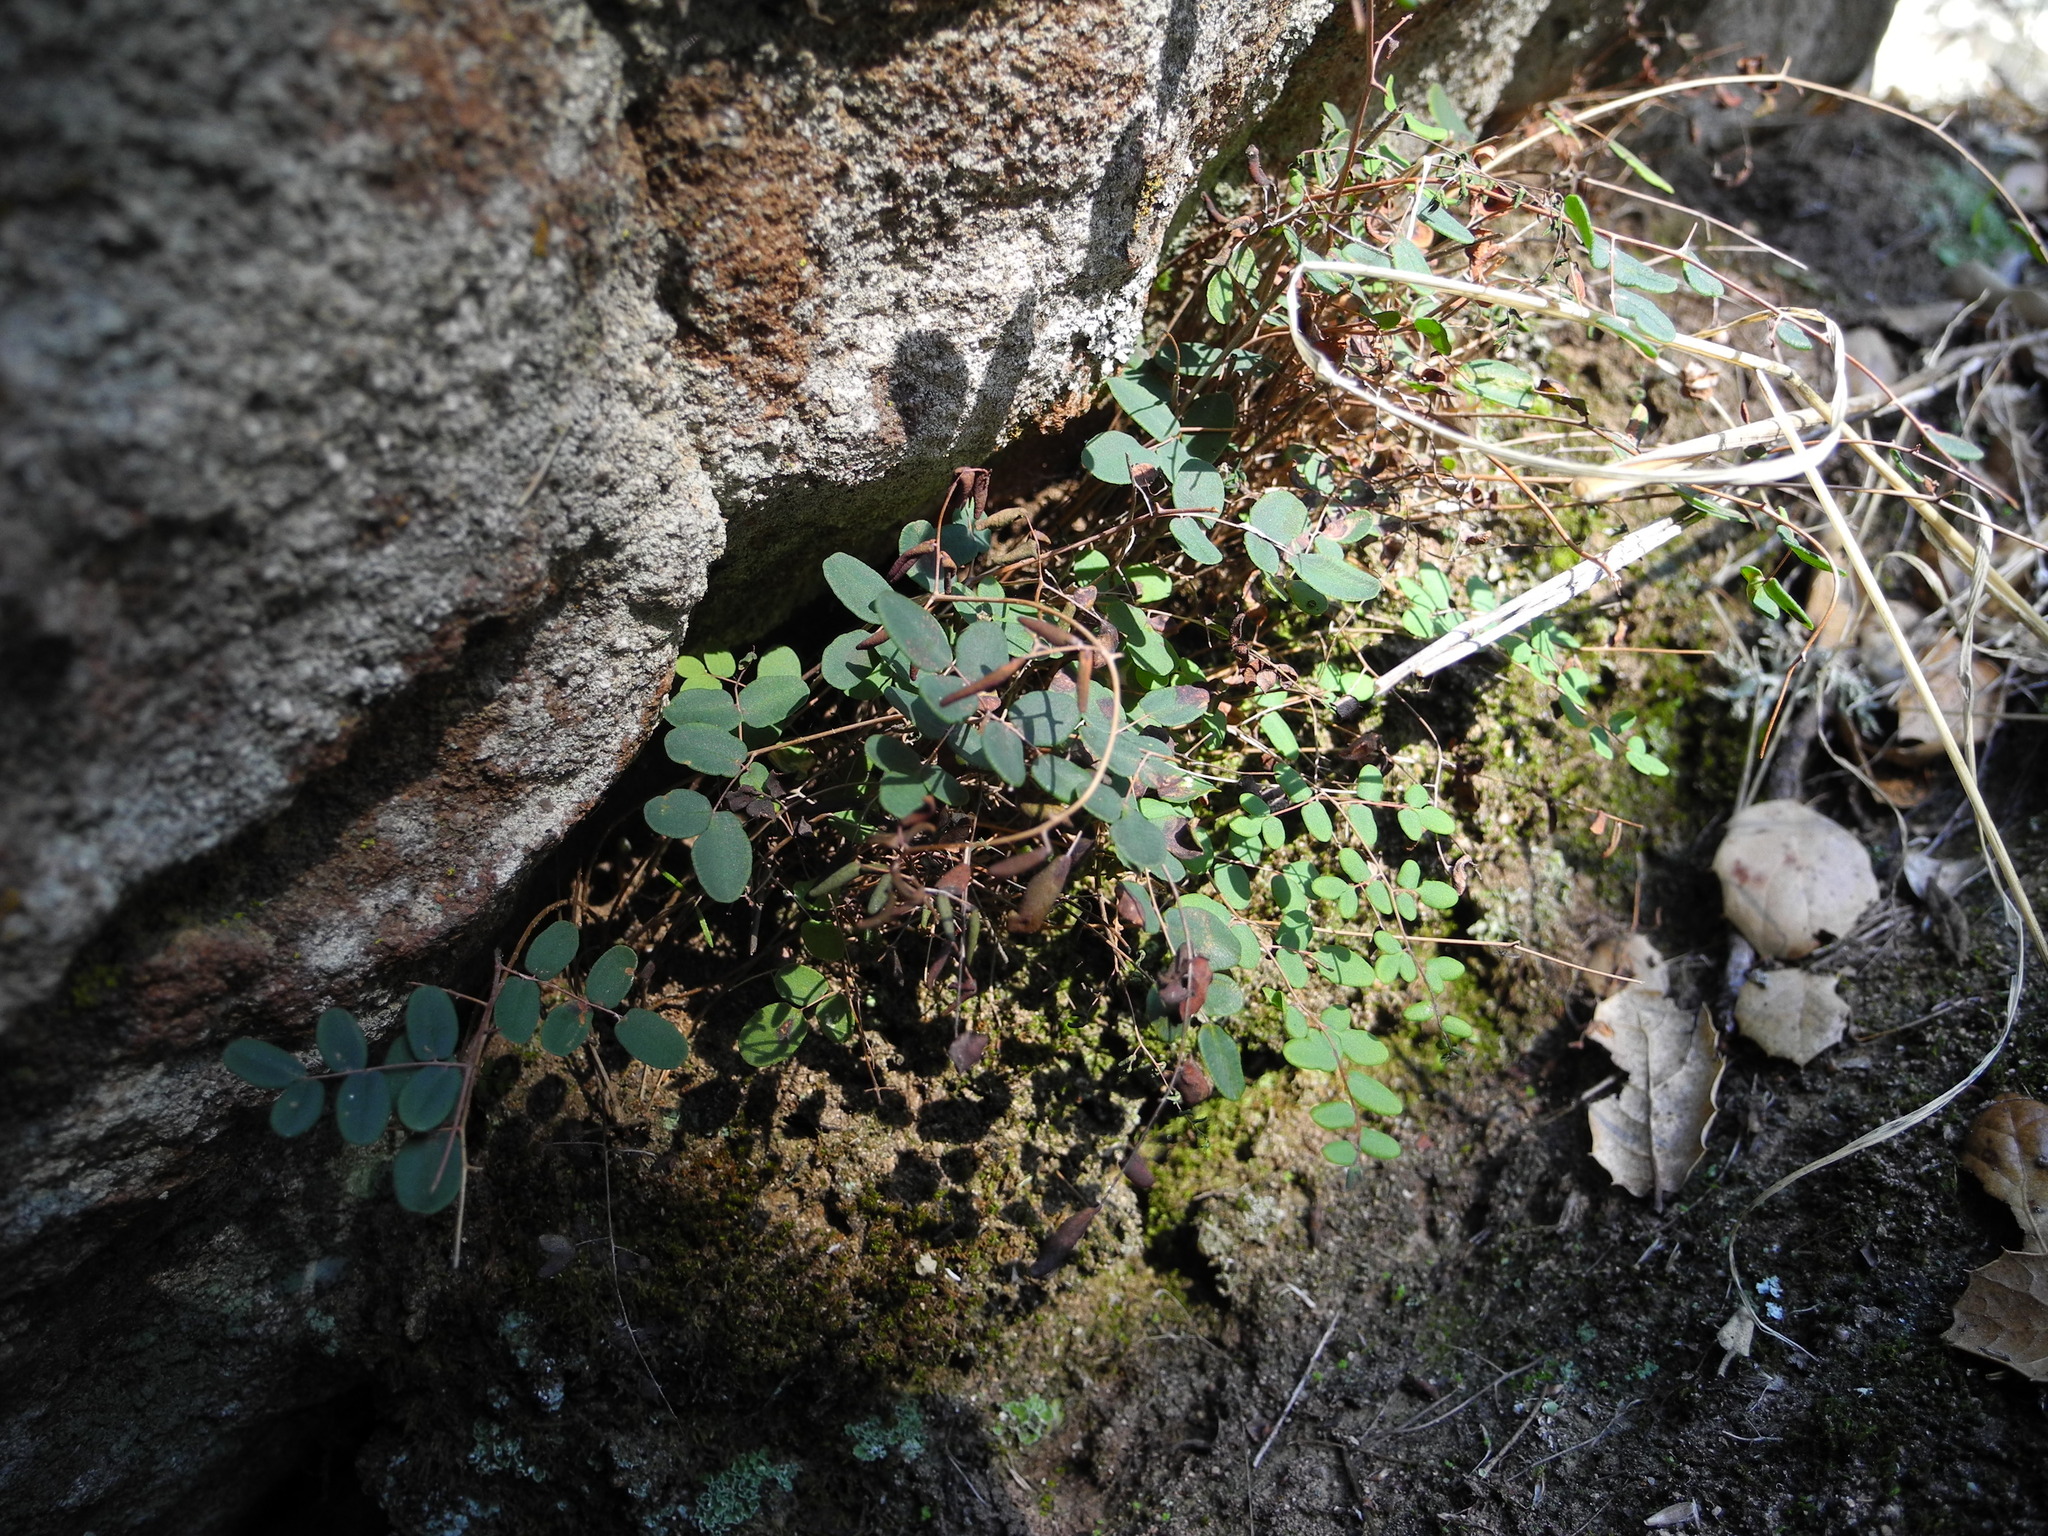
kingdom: Plantae
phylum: Tracheophyta
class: Polypodiopsida
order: Polypodiales
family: Pteridaceae
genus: Pellaea
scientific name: Pellaea andromedifolia
